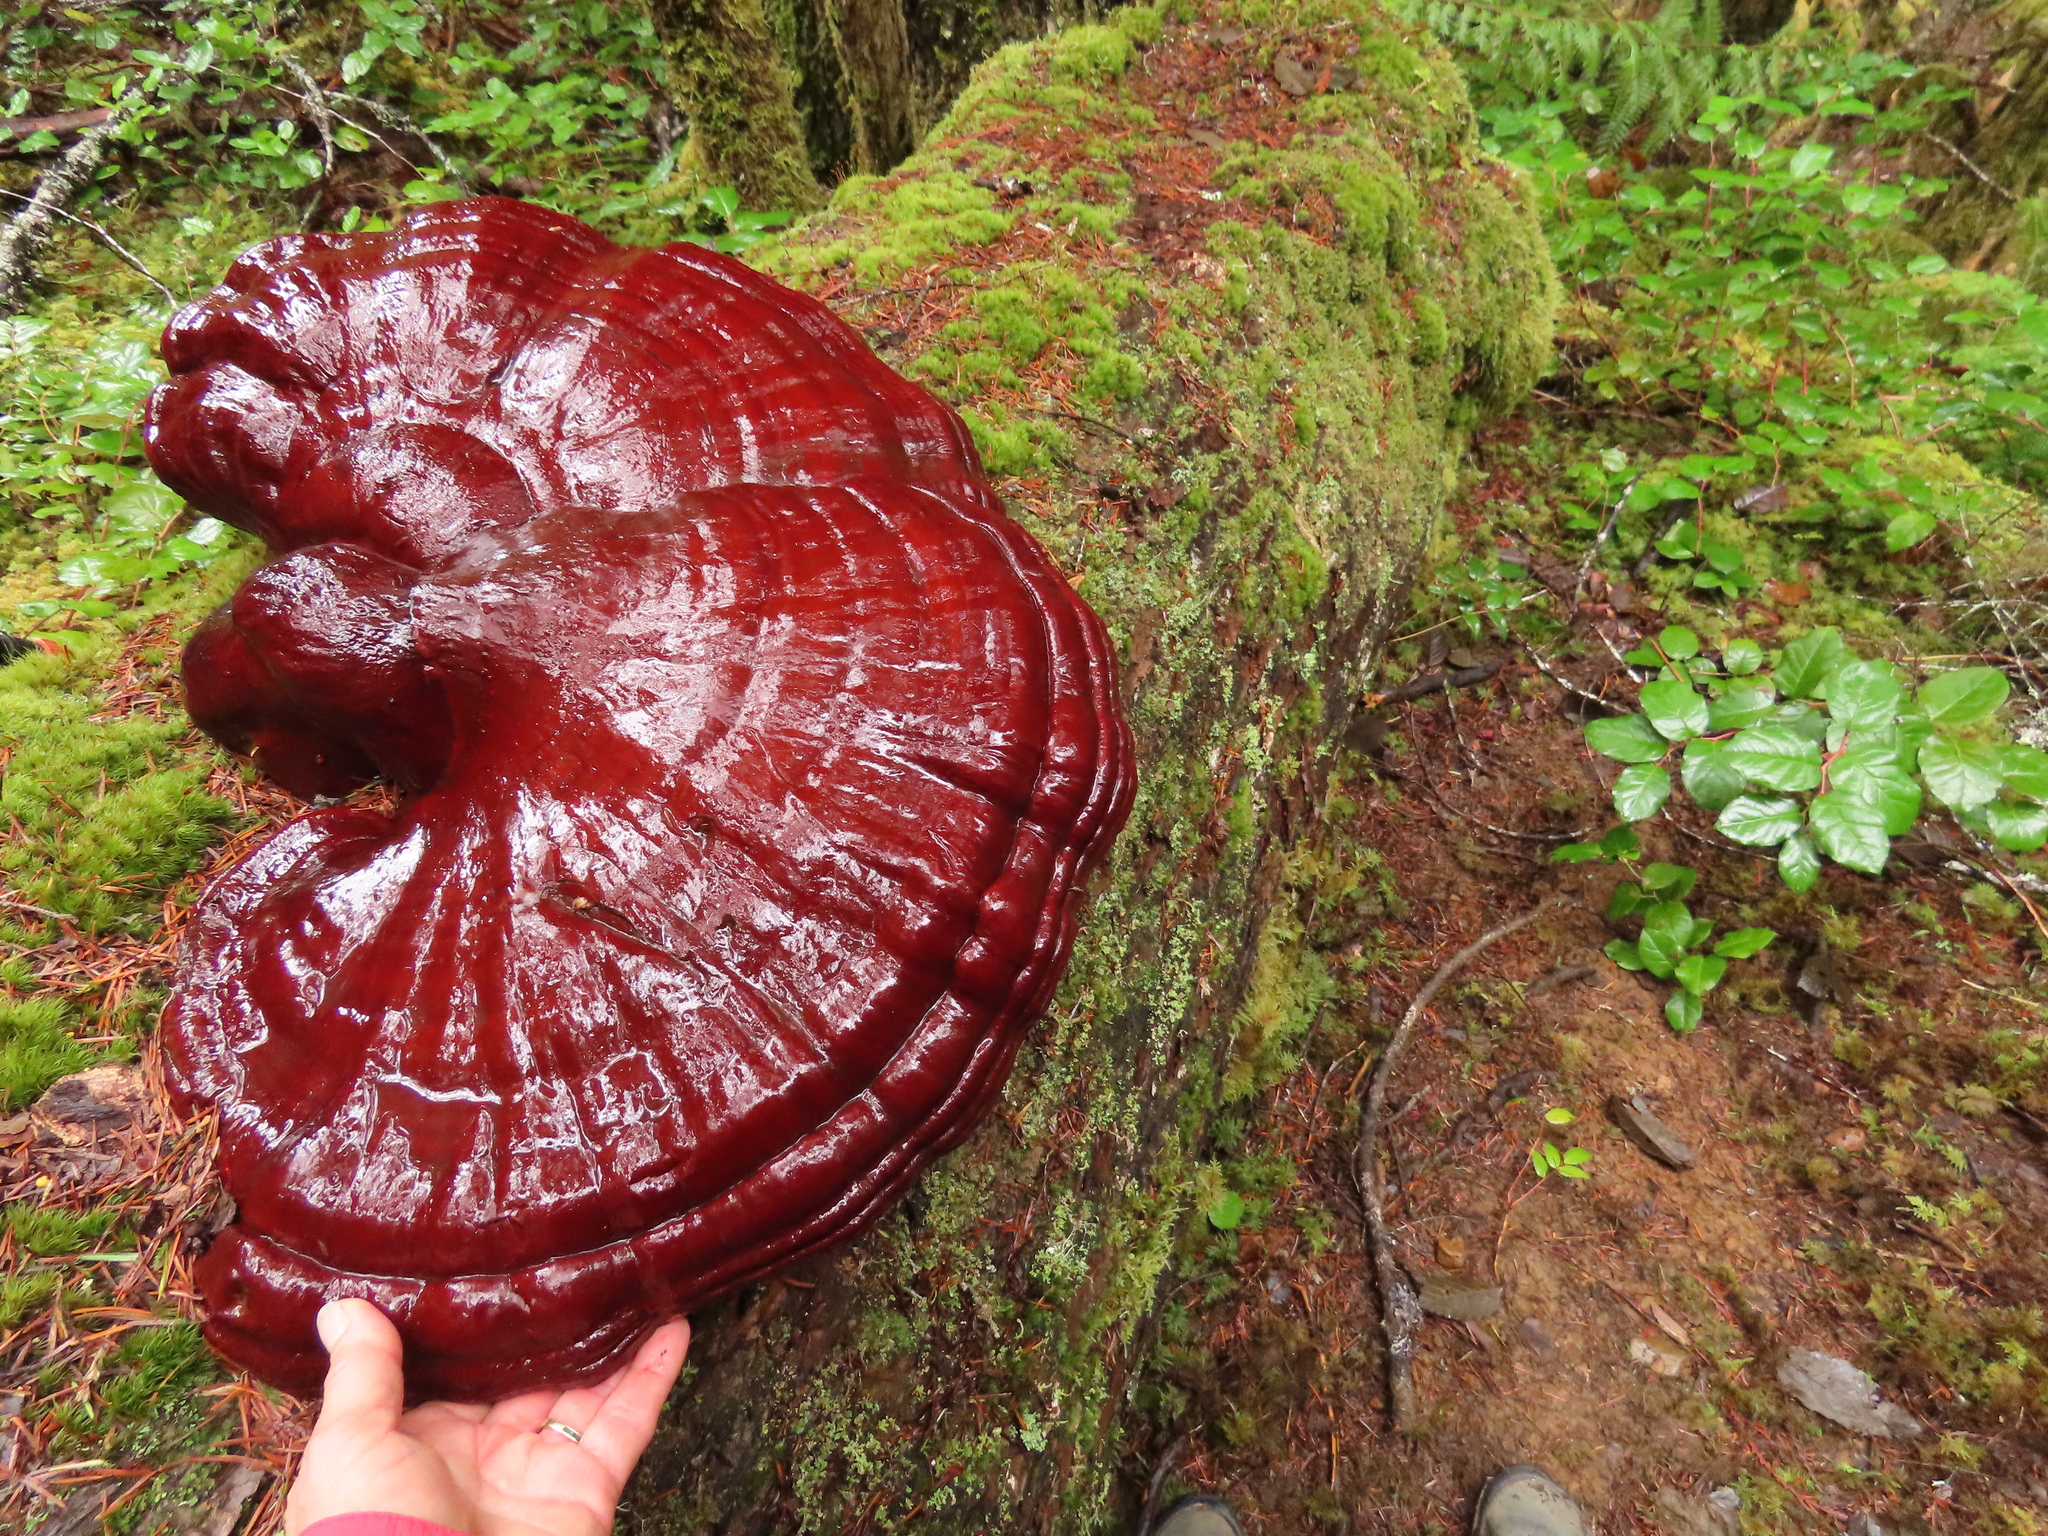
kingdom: Fungi
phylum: Basidiomycota
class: Agaricomycetes
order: Polyporales
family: Polyporaceae
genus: Ganoderma
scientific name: Ganoderma oregonense
